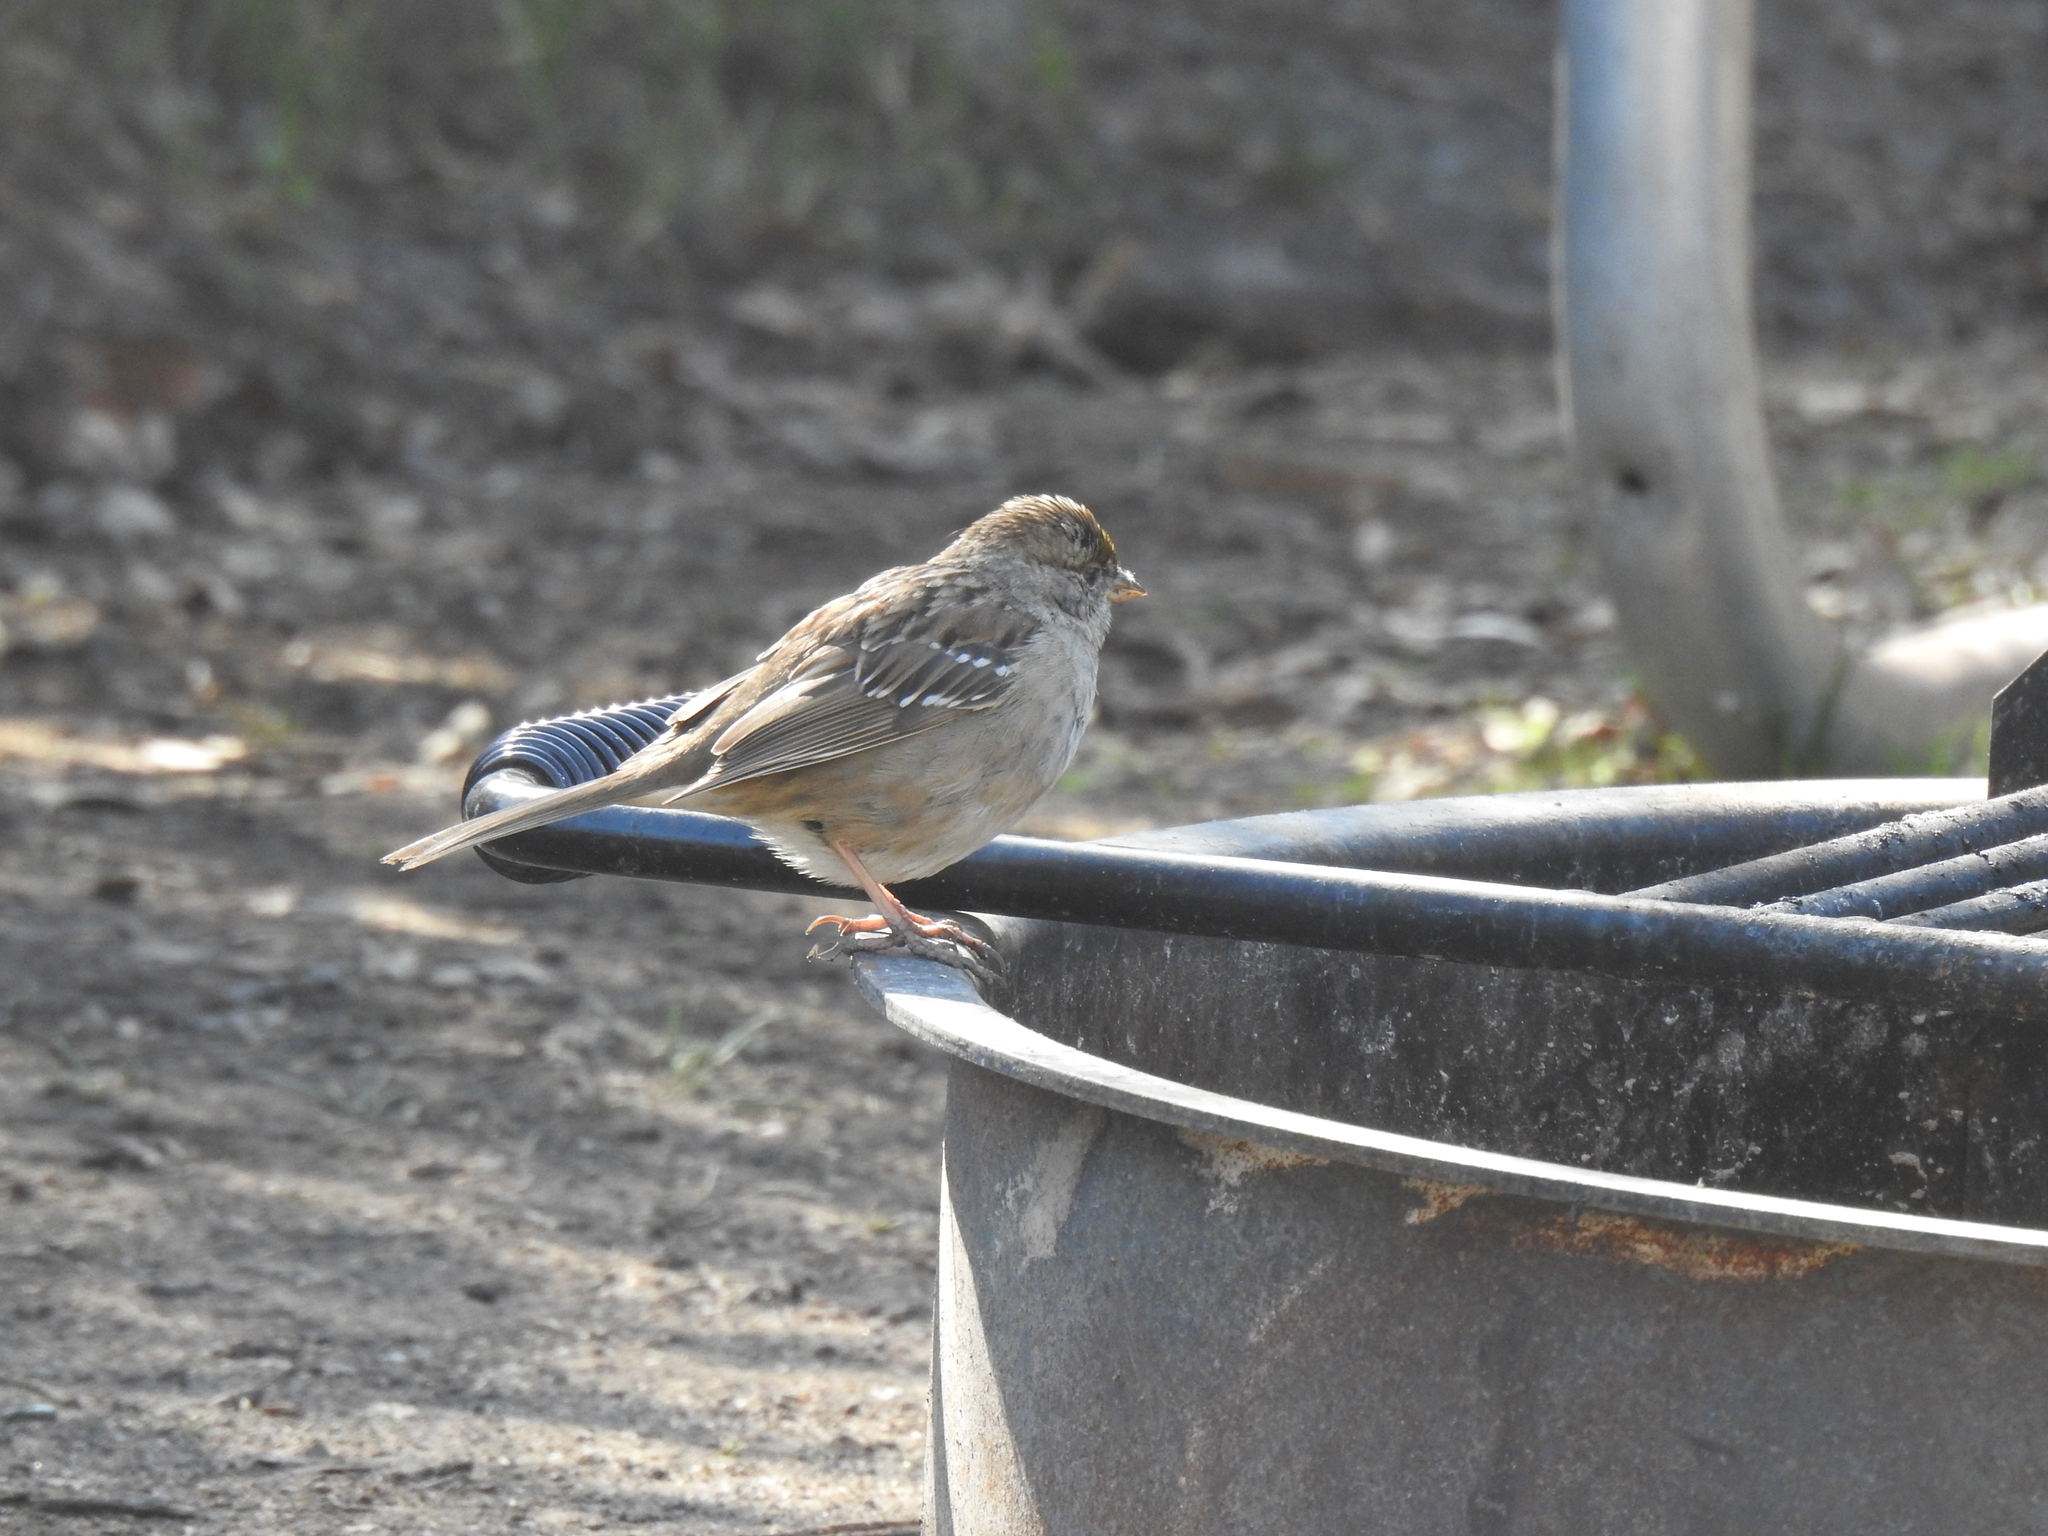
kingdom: Animalia
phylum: Chordata
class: Aves
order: Passeriformes
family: Passerellidae
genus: Zonotrichia
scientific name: Zonotrichia atricapilla
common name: Golden-crowned sparrow
